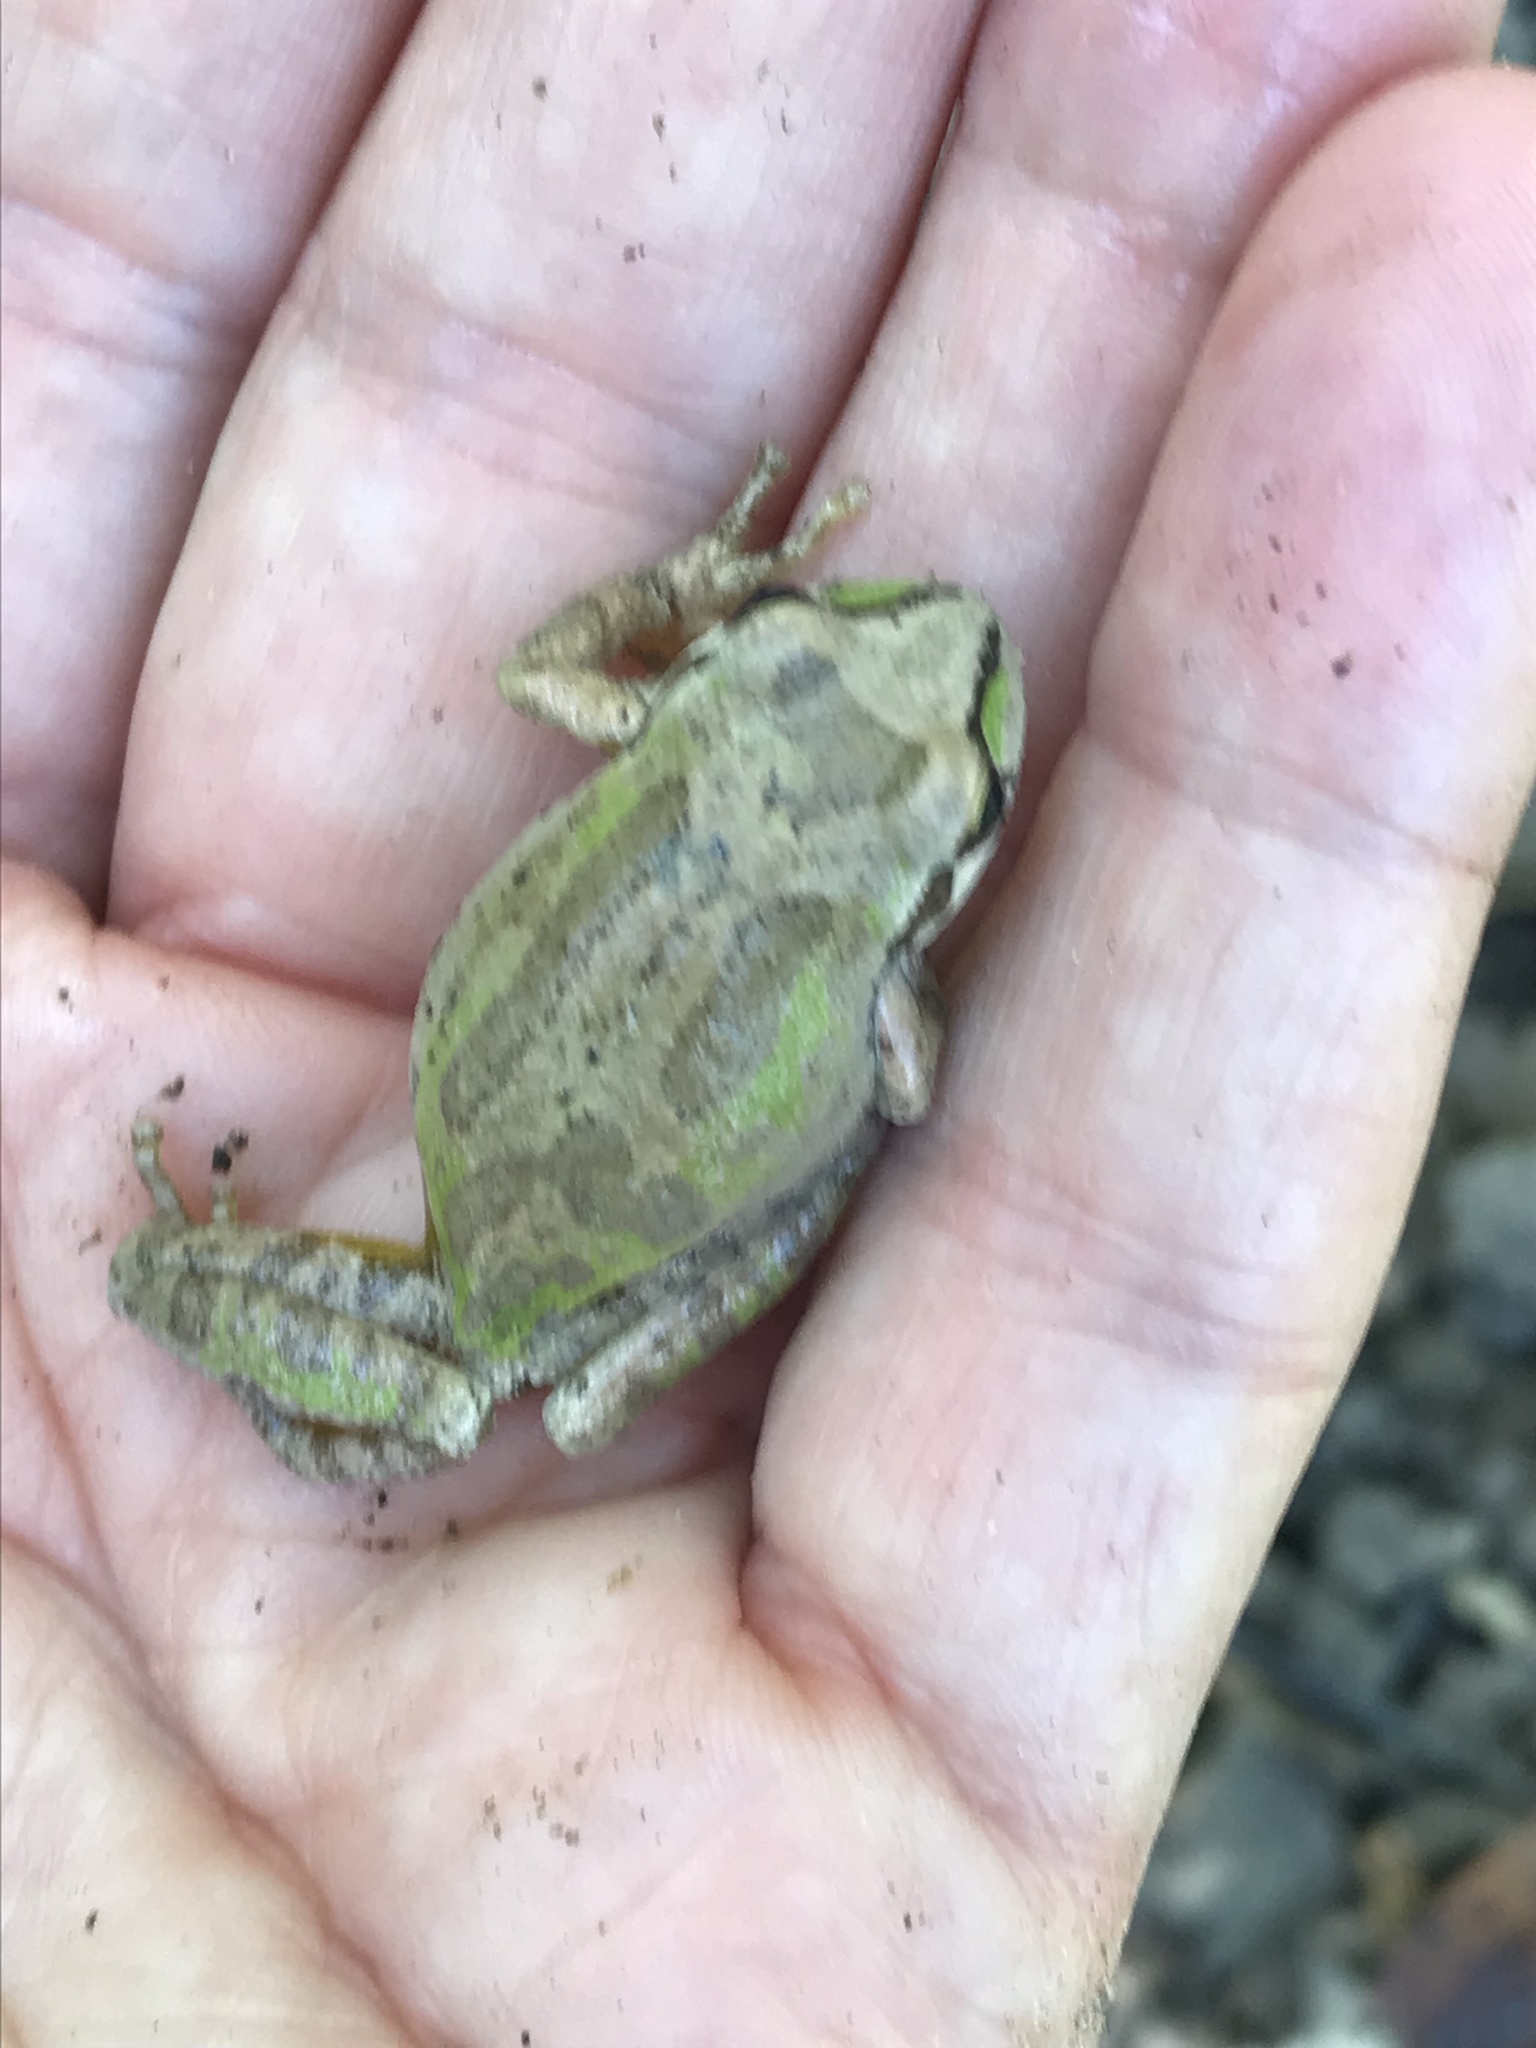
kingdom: Animalia
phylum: Chordata
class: Amphibia
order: Anura
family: Hylidae
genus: Pseudacris
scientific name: Pseudacris regilla
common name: Pacific chorus frog
